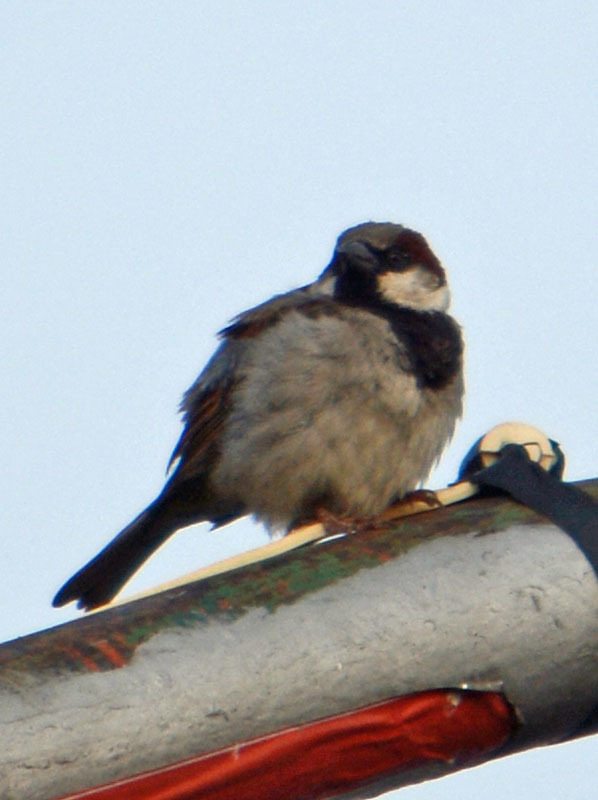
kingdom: Animalia
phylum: Chordata
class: Aves
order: Passeriformes
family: Passeridae
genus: Passer
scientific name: Passer domesticus
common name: House sparrow
